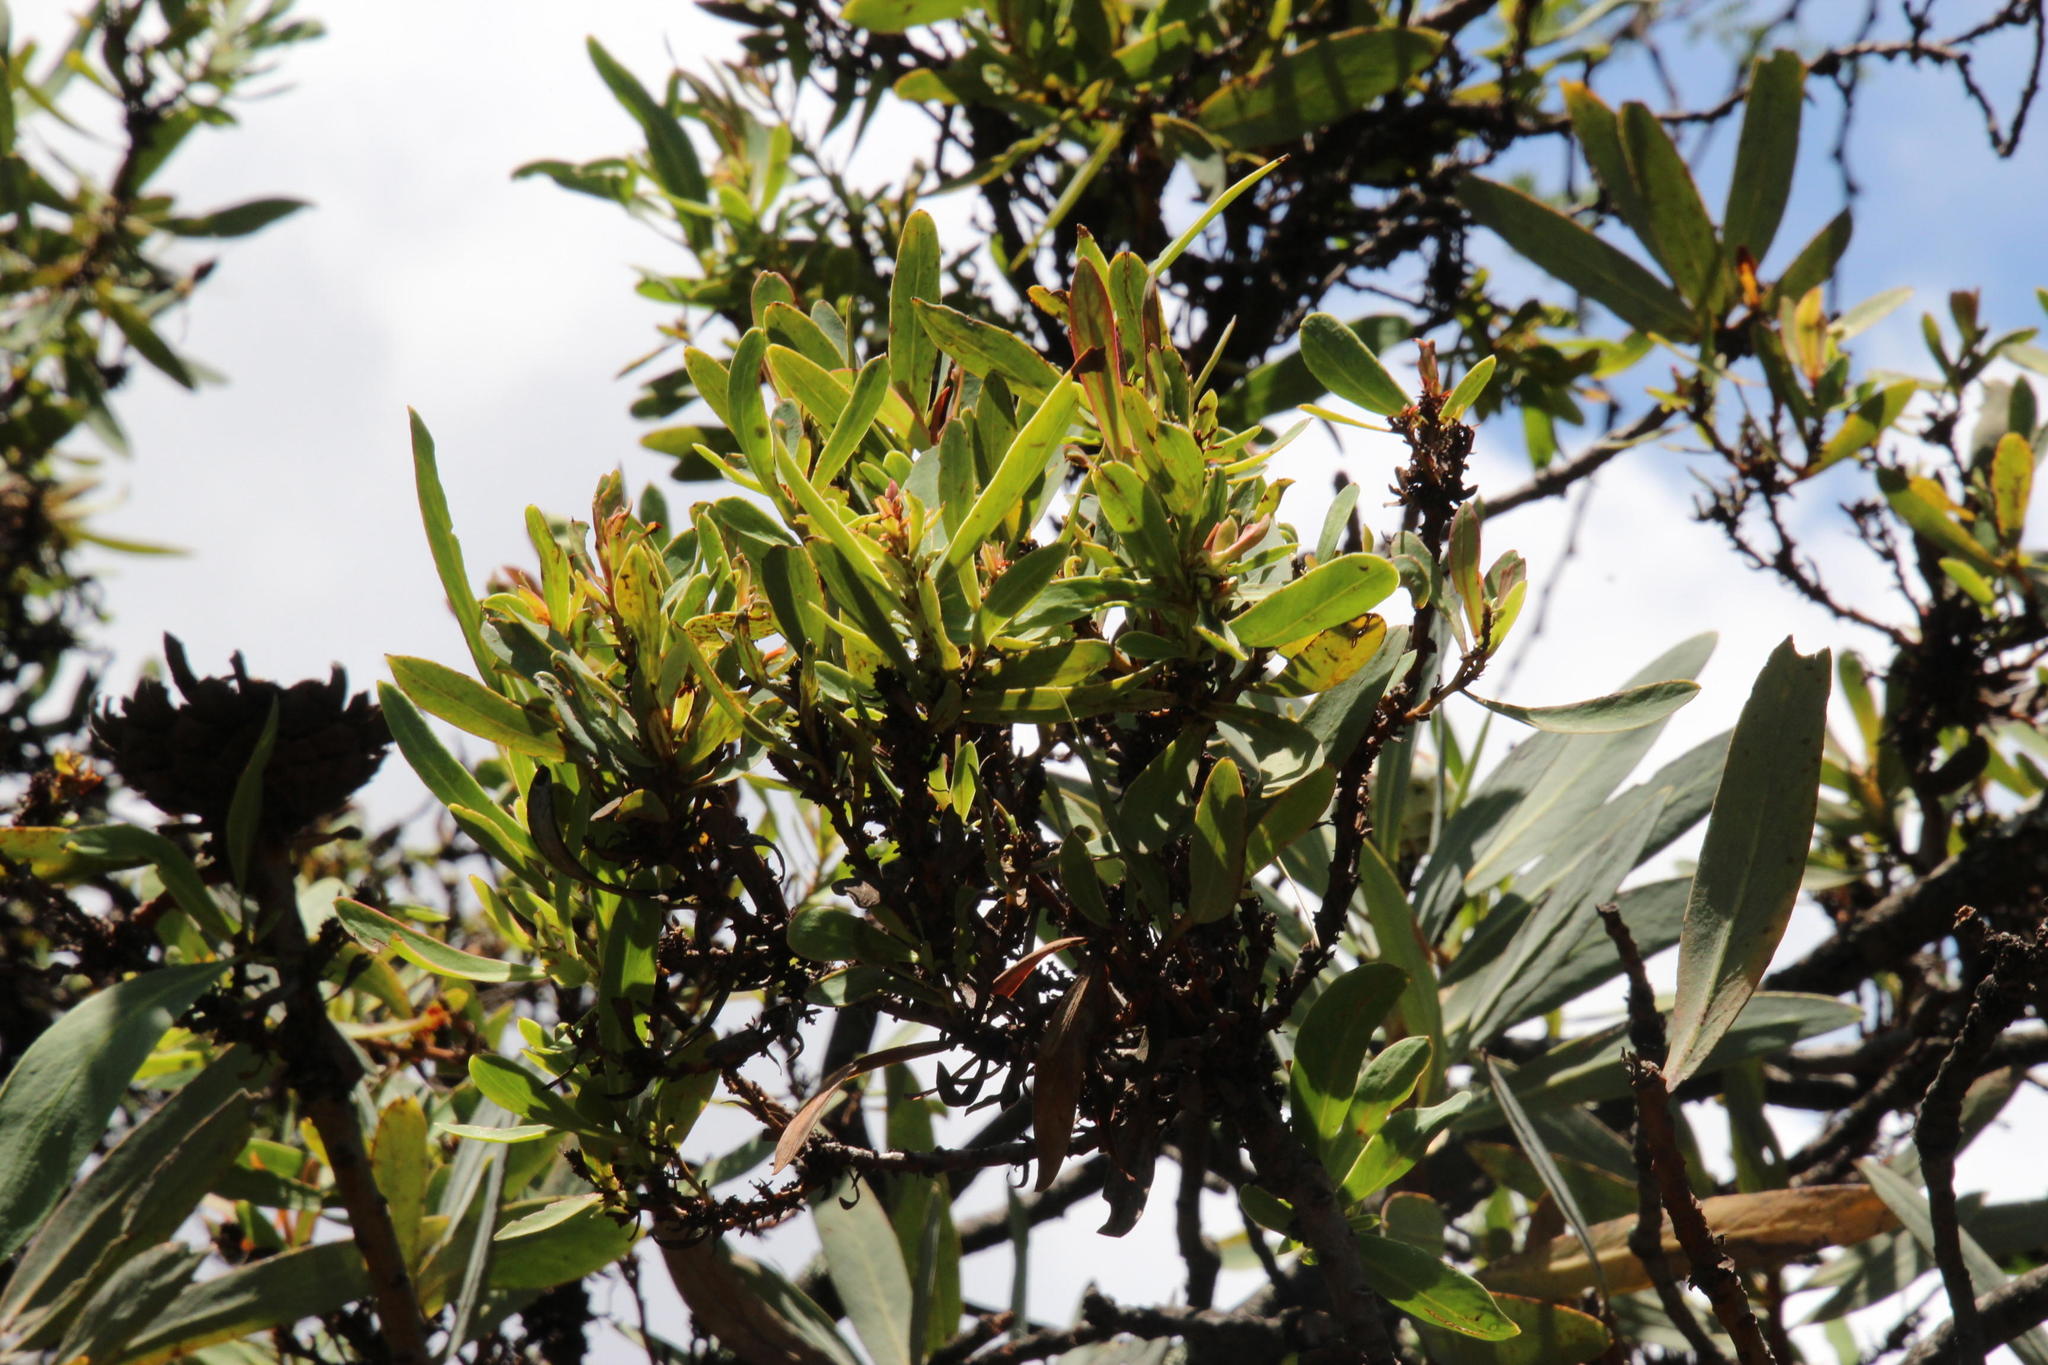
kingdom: Plantae
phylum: Tracheophyta
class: Magnoliopsida
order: Proteales
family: Proteaceae
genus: Protea
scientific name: Protea caffra
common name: Common sugarbush
